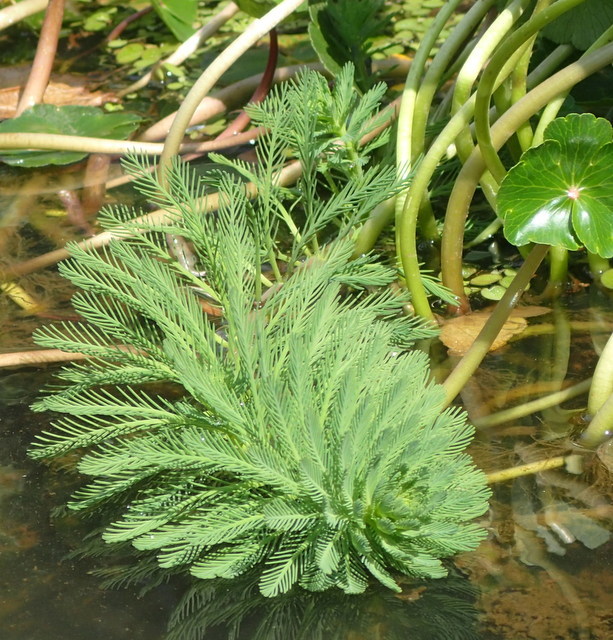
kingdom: Plantae
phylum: Tracheophyta
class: Magnoliopsida
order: Saxifragales
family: Haloragaceae
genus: Myriophyllum
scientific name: Myriophyllum aquaticum
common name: Parrot's feather
